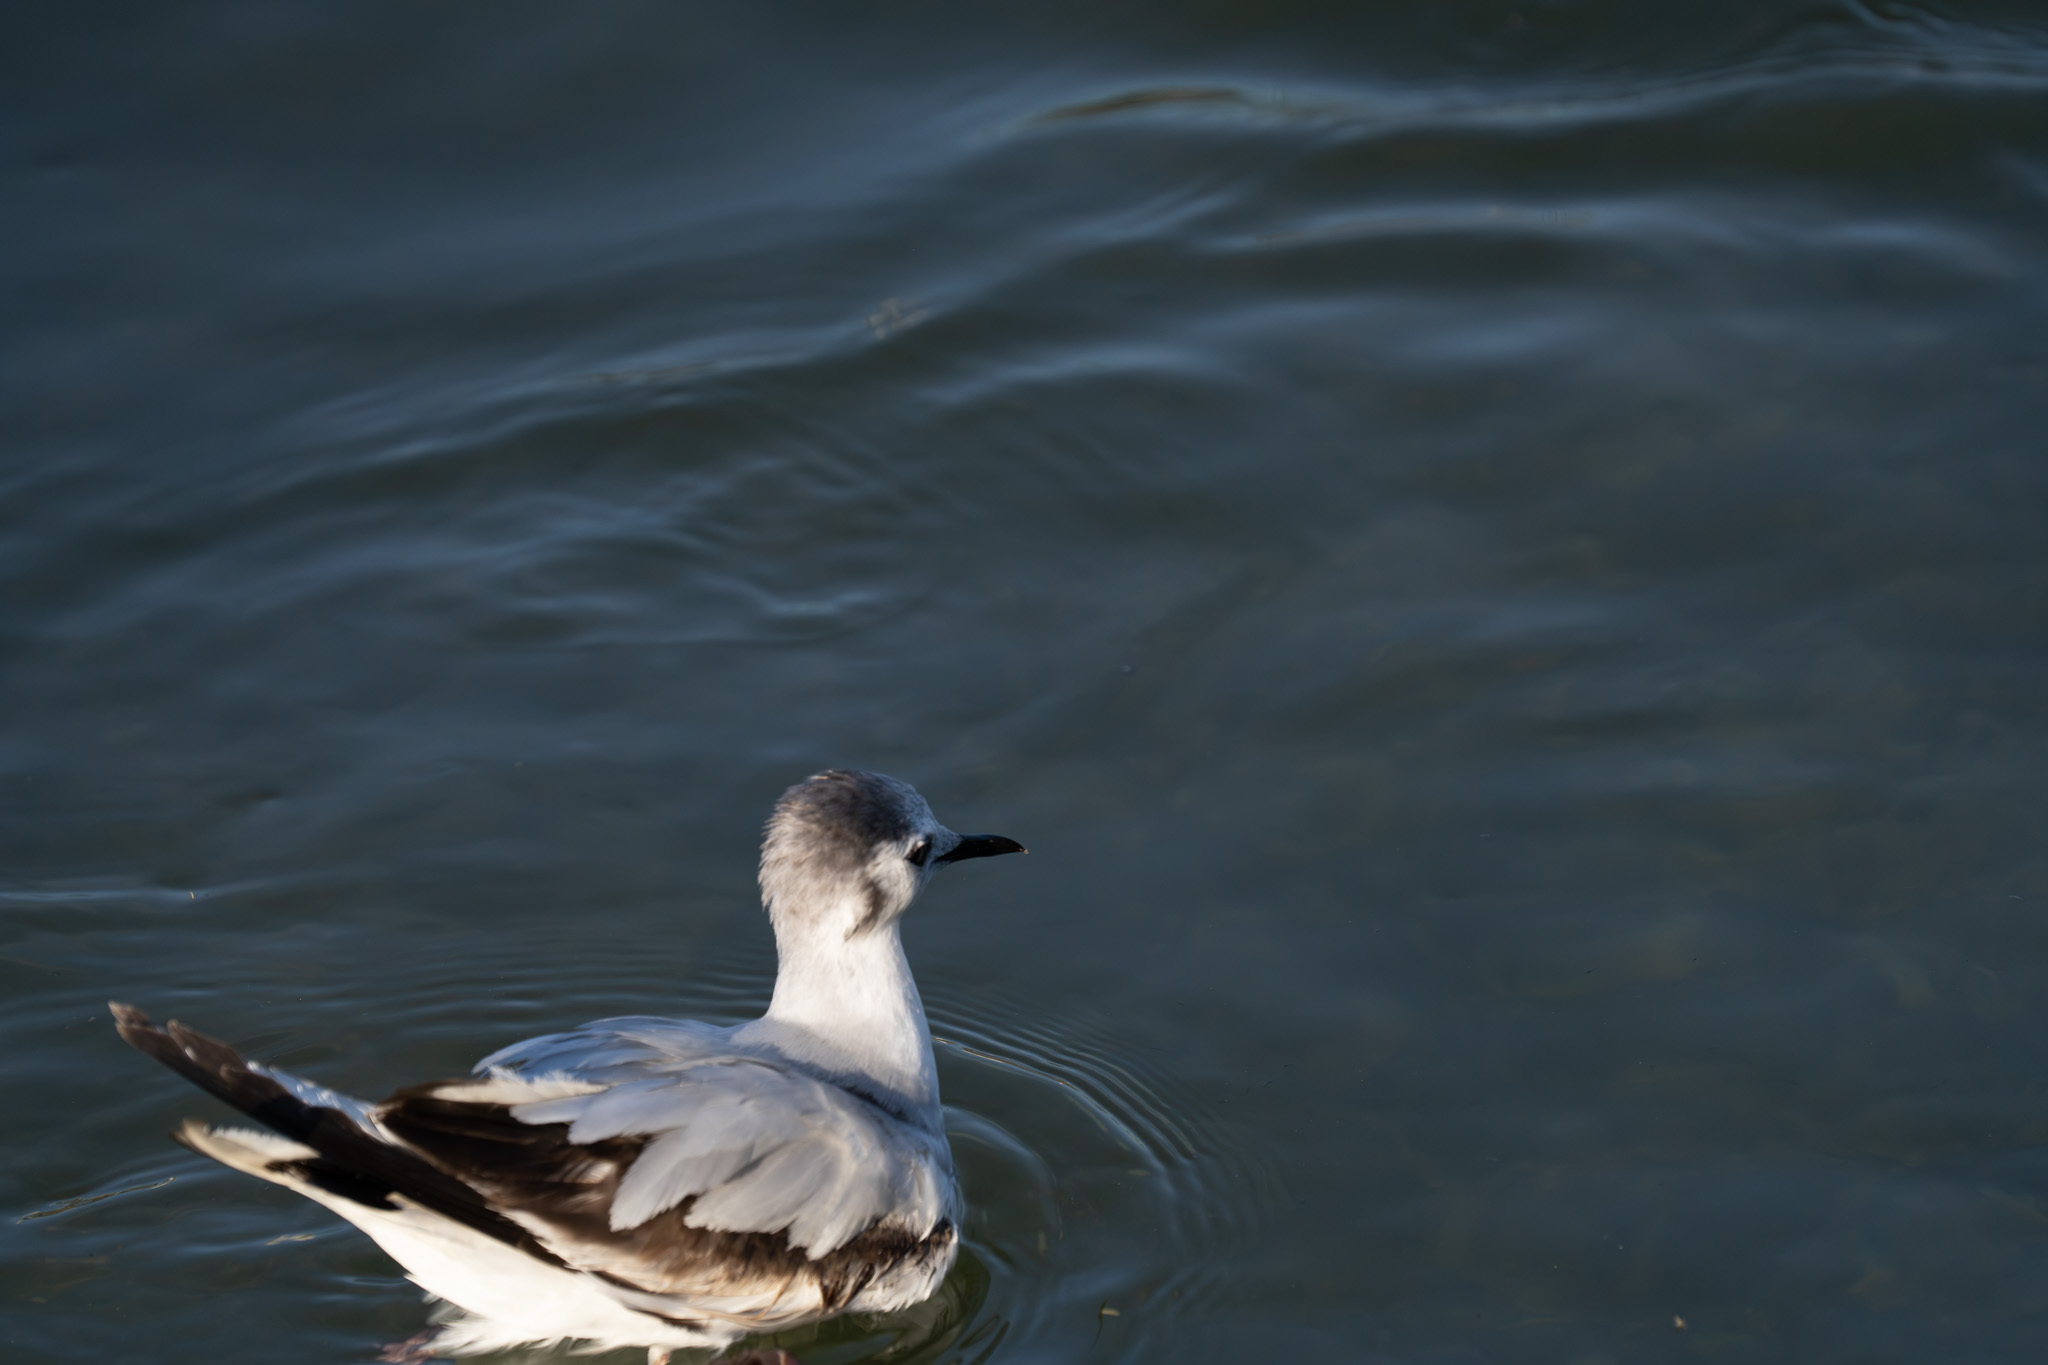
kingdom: Animalia
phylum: Chordata
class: Aves
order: Charadriiformes
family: Laridae
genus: Hydrocoloeus
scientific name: Hydrocoloeus minutus
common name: Little gull
